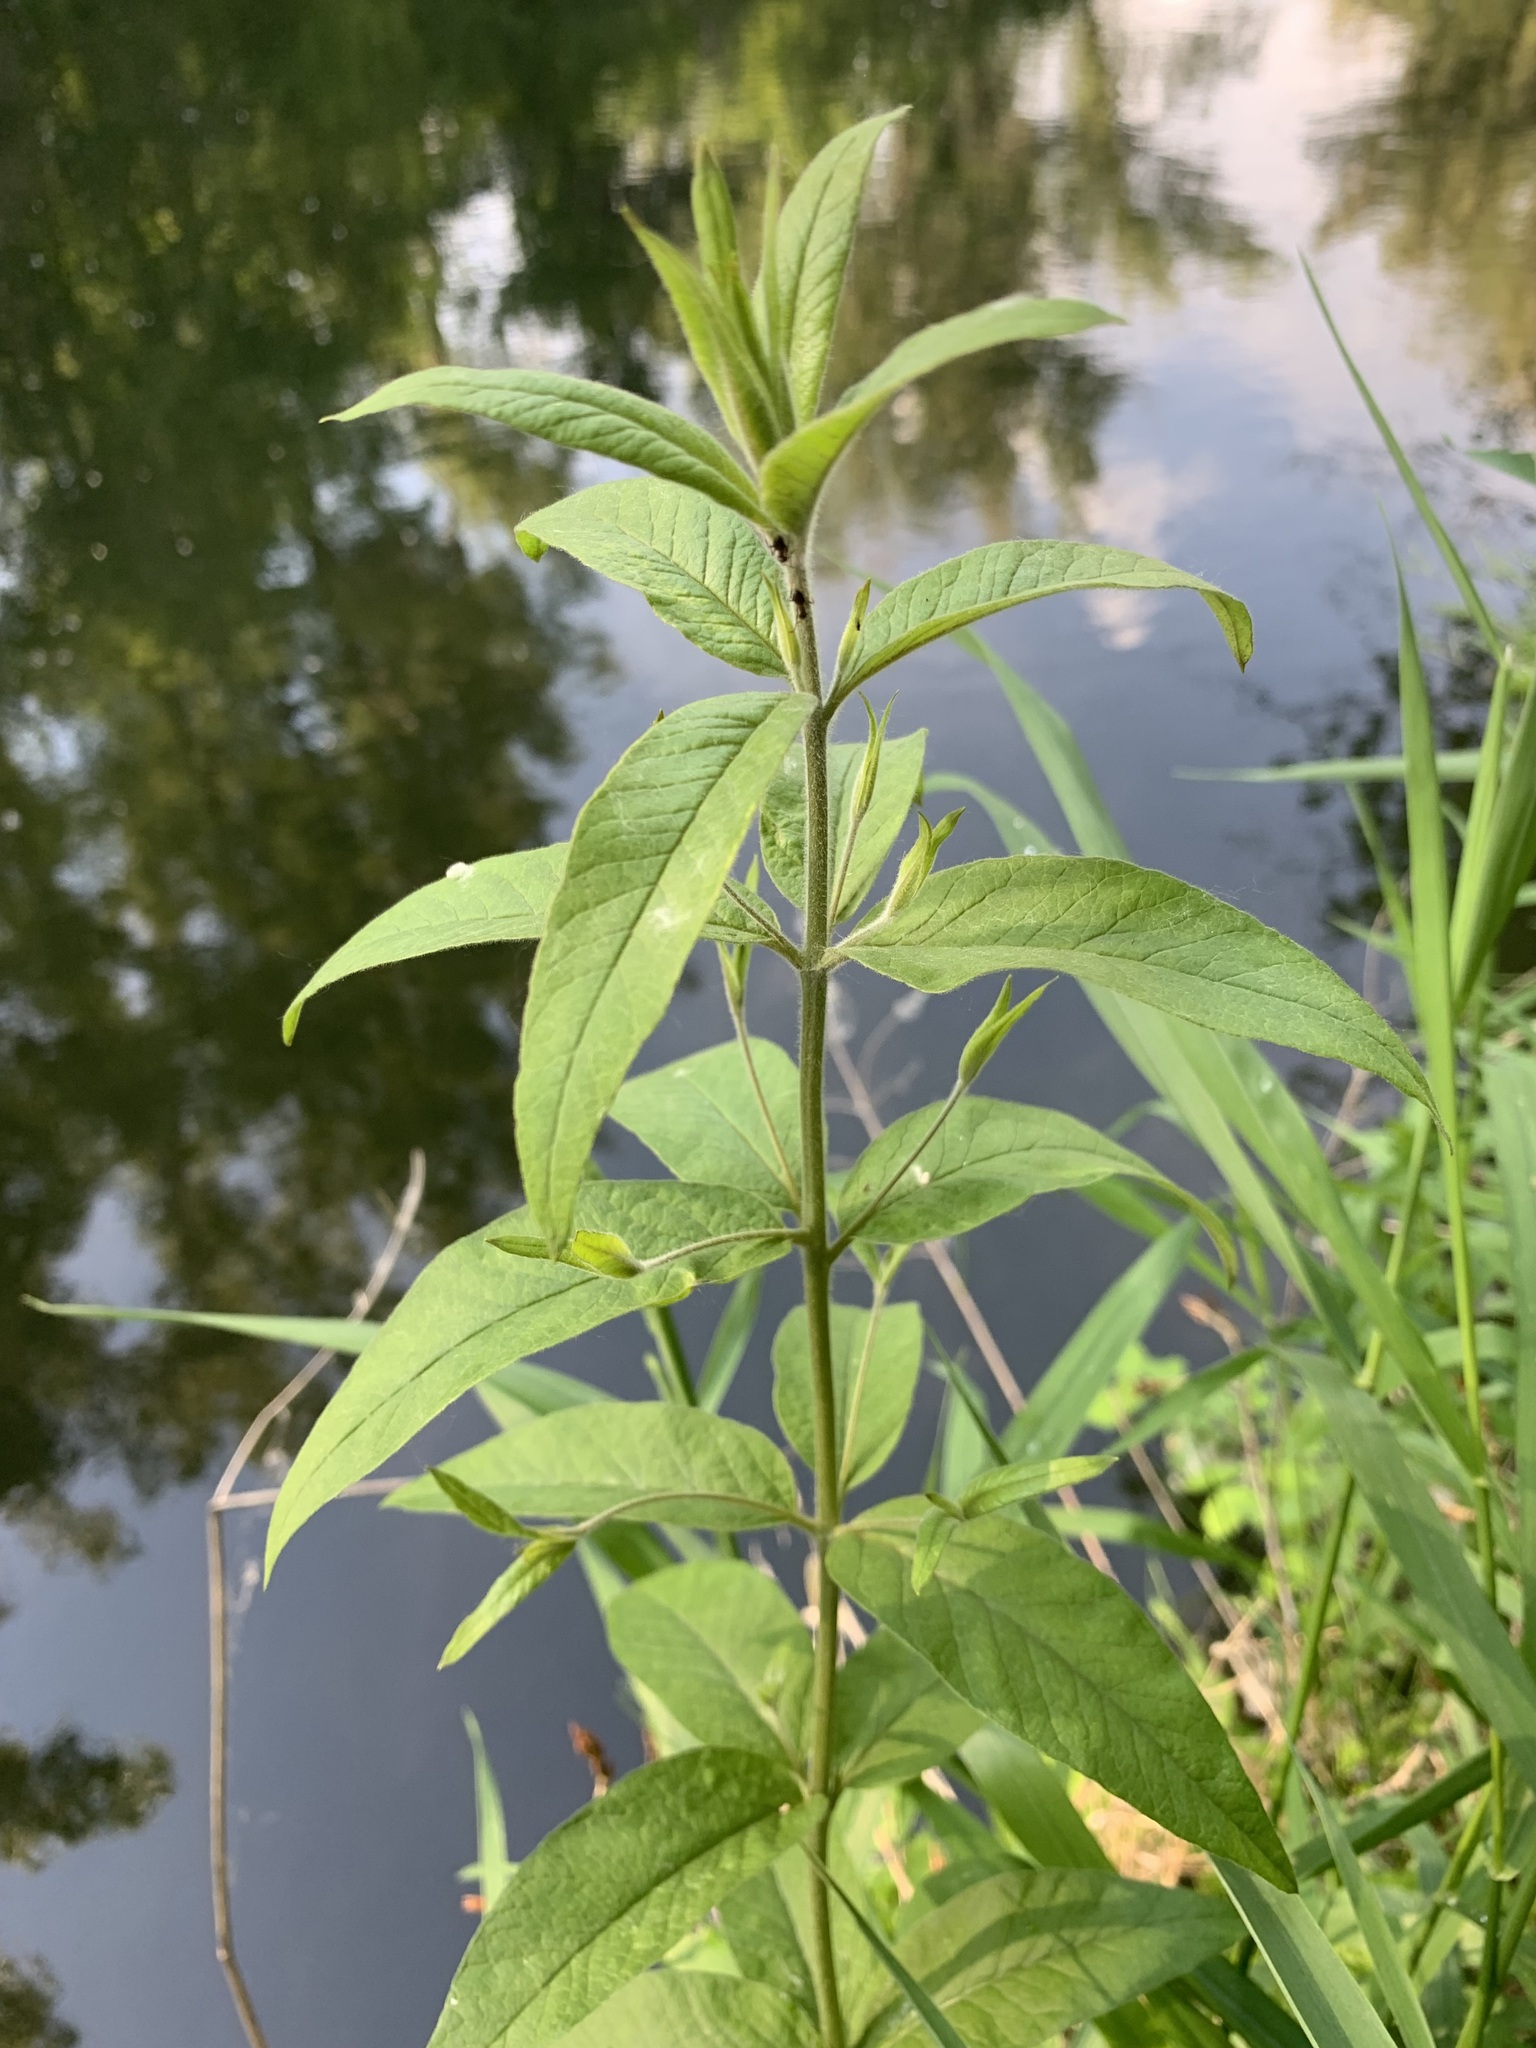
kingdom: Plantae
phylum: Tracheophyta
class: Magnoliopsida
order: Ericales
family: Primulaceae
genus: Lysimachia
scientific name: Lysimachia vulgaris
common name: Yellow loosestrife
